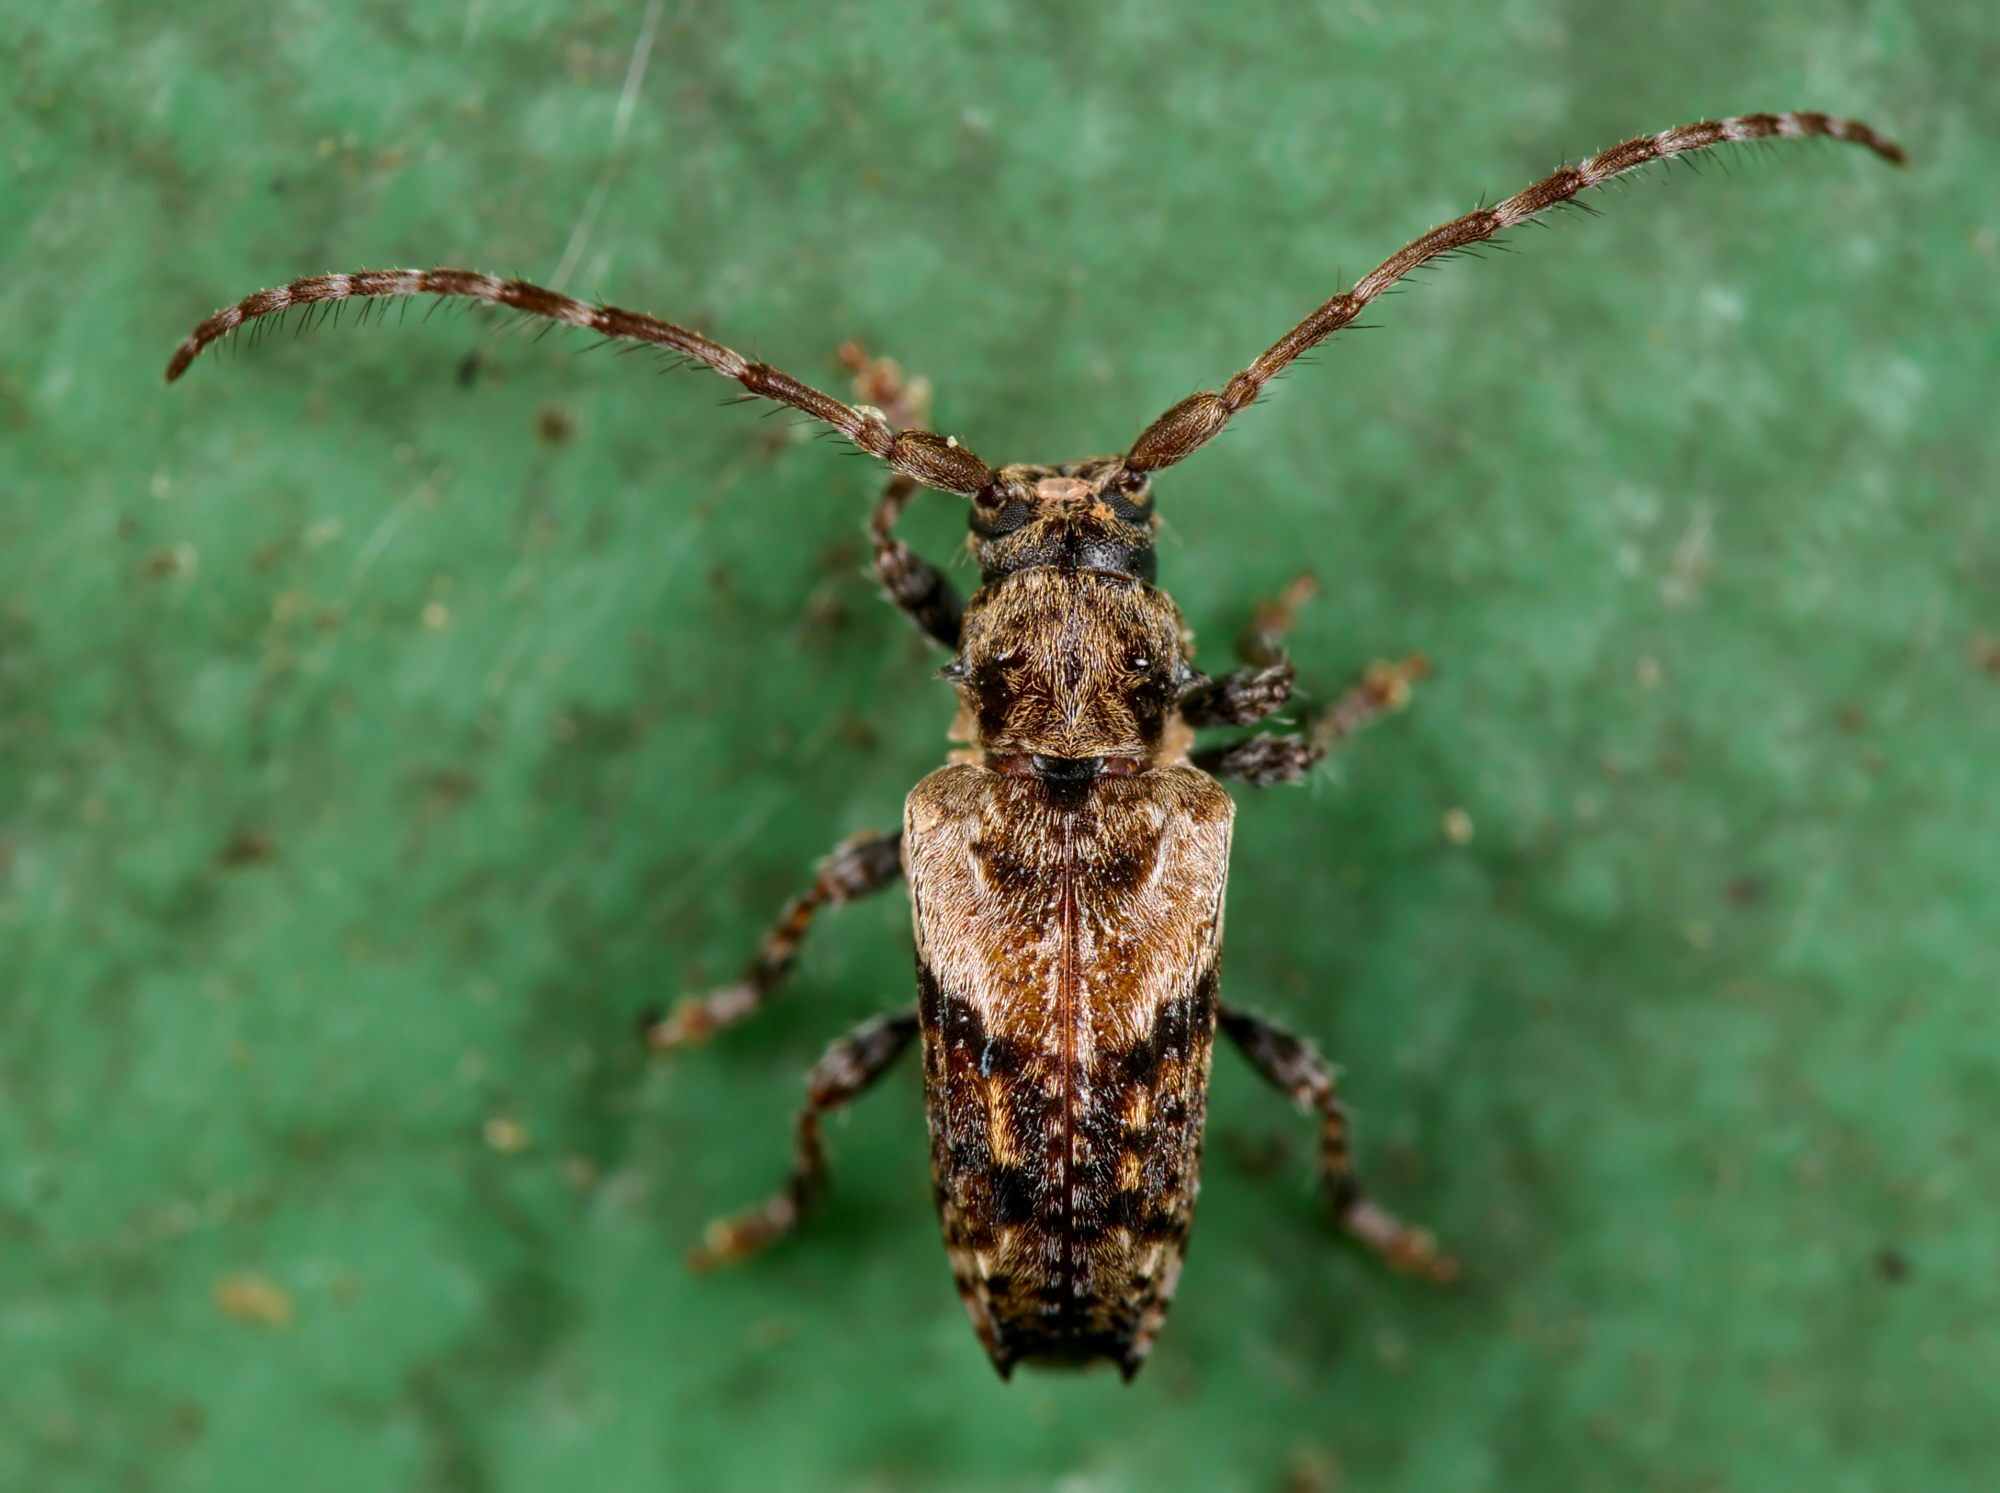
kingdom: Animalia
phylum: Arthropoda
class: Insecta
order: Coleoptera
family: Cerambycidae
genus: Pogonocherus
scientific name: Pogonocherus hispidus
